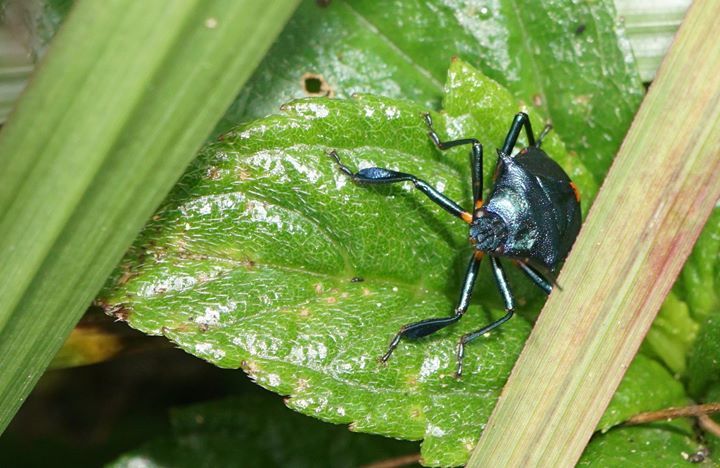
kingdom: Animalia
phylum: Arthropoda
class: Insecta
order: Hemiptera
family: Pentatomidae
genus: Euthyrhynchus
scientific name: Euthyrhynchus floridanus
